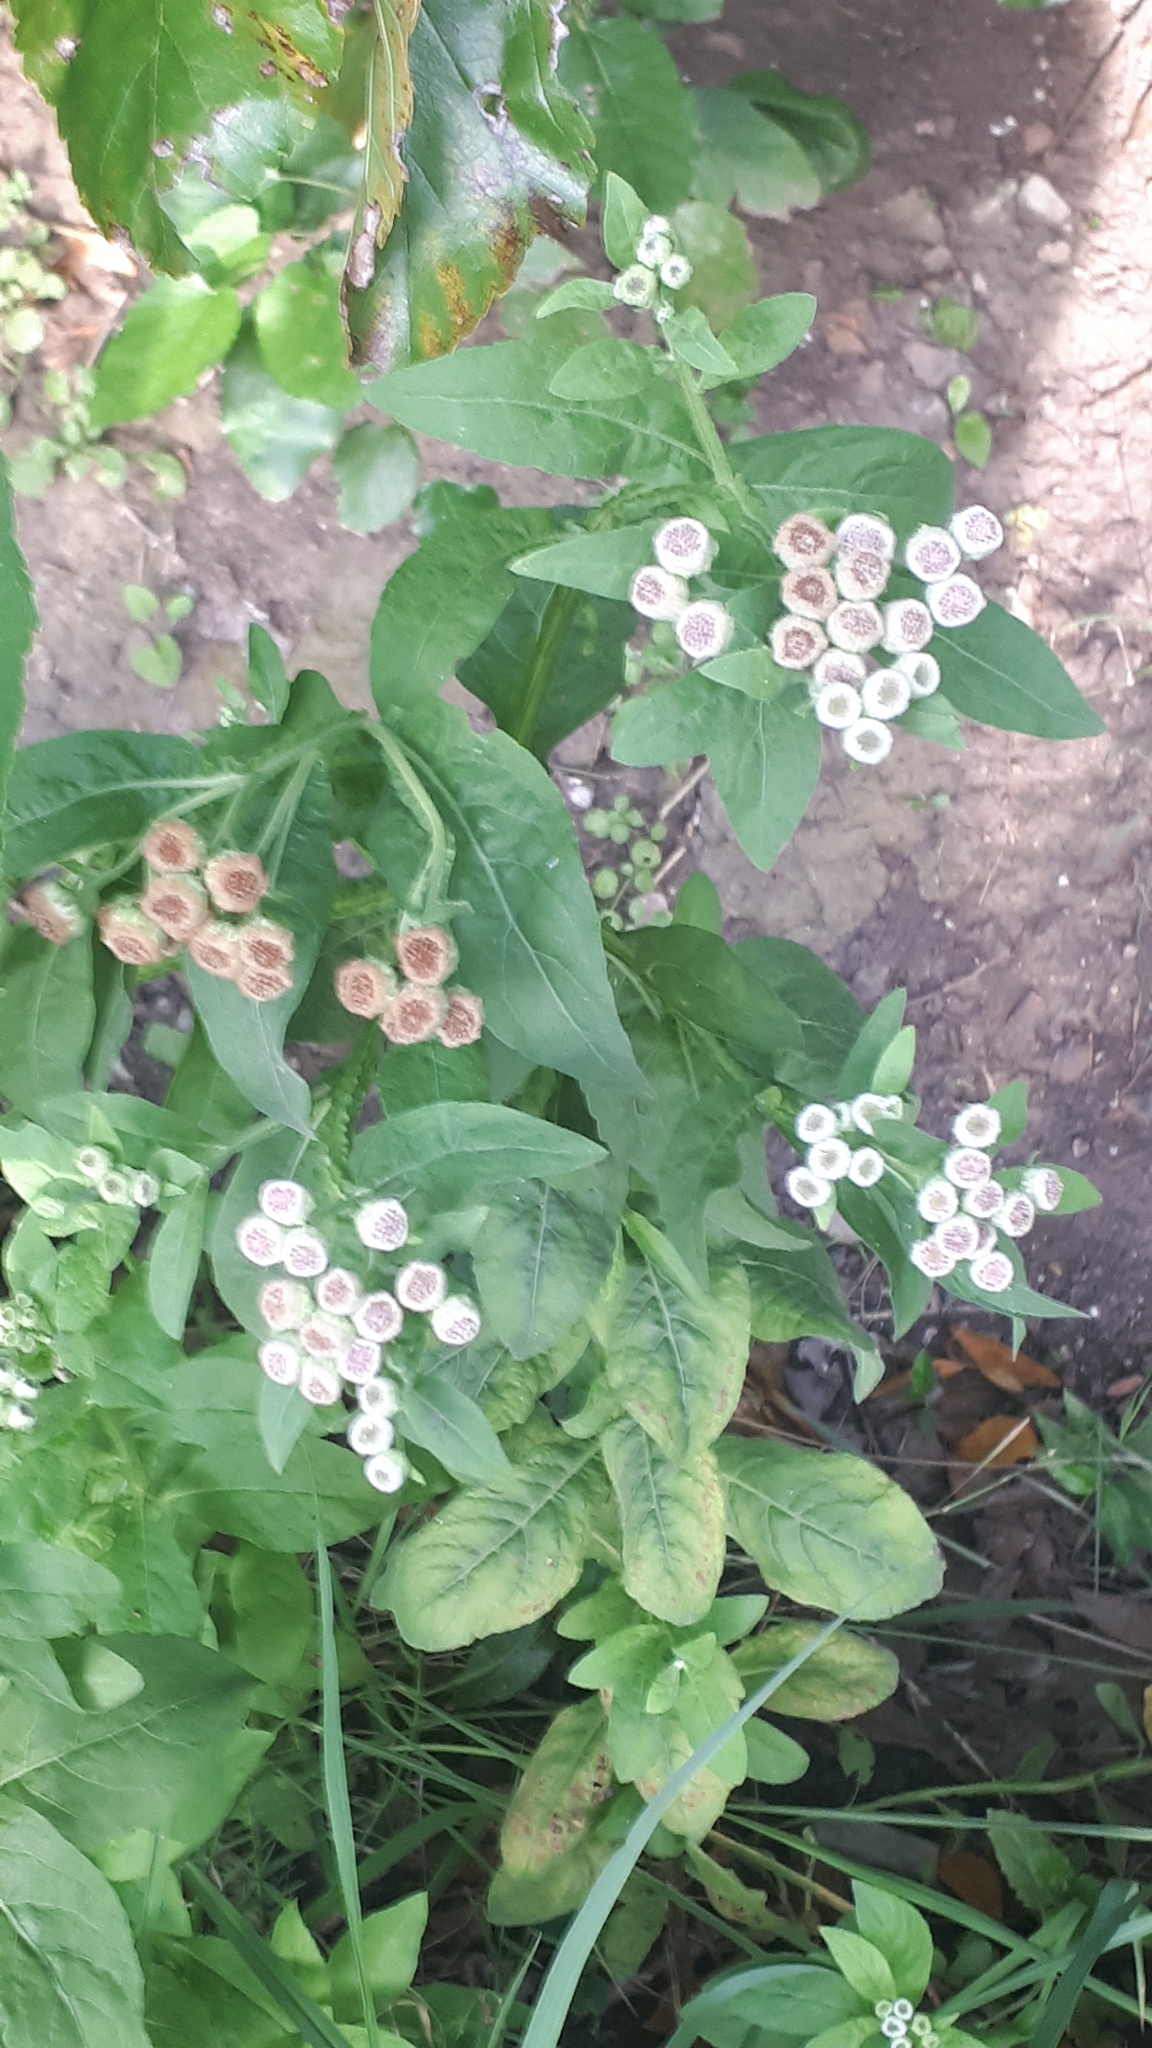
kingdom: Plantae
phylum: Tracheophyta
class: Magnoliopsida
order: Asterales
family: Asteraceae
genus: Pluchea
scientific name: Pluchea sagittalis
